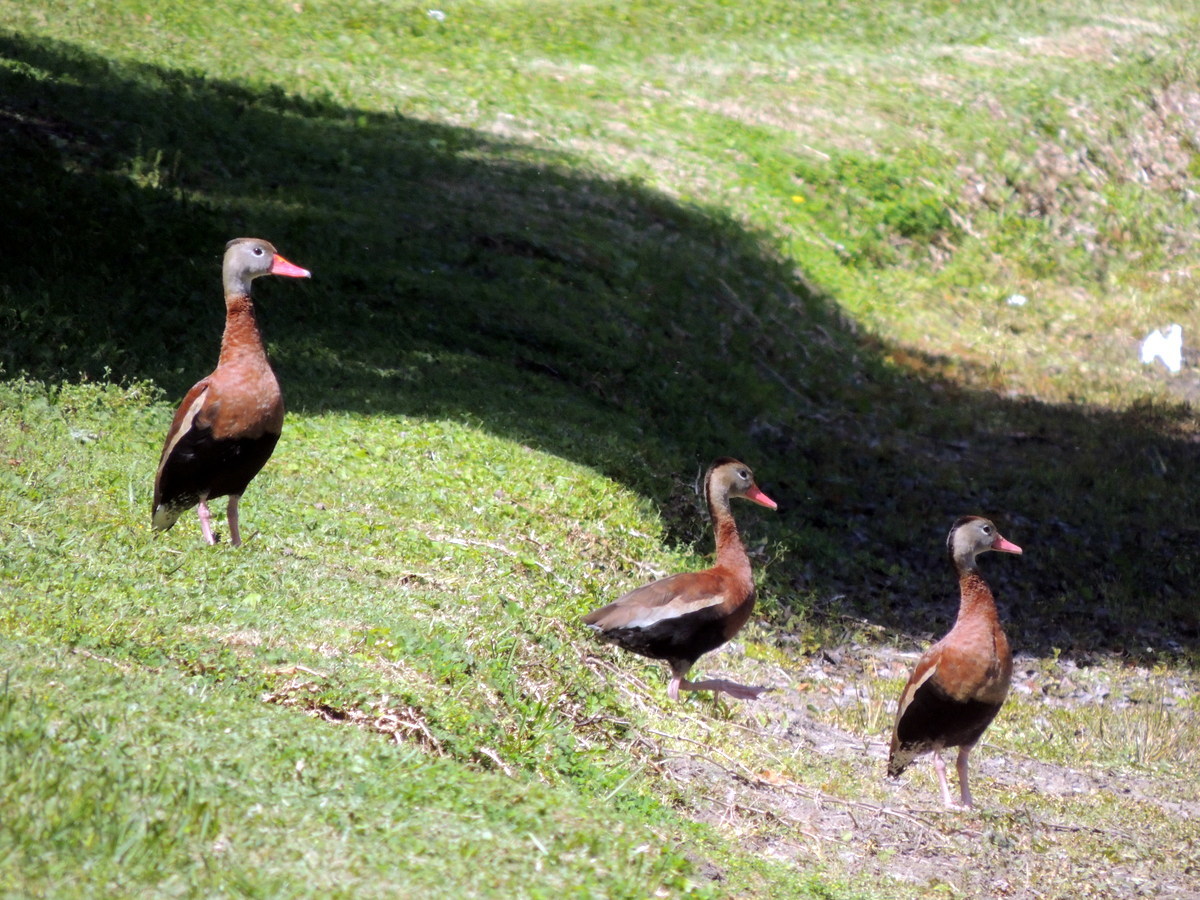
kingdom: Animalia
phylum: Chordata
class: Aves
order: Anseriformes
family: Anatidae
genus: Dendrocygna
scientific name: Dendrocygna autumnalis
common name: Black-bellied whistling duck
